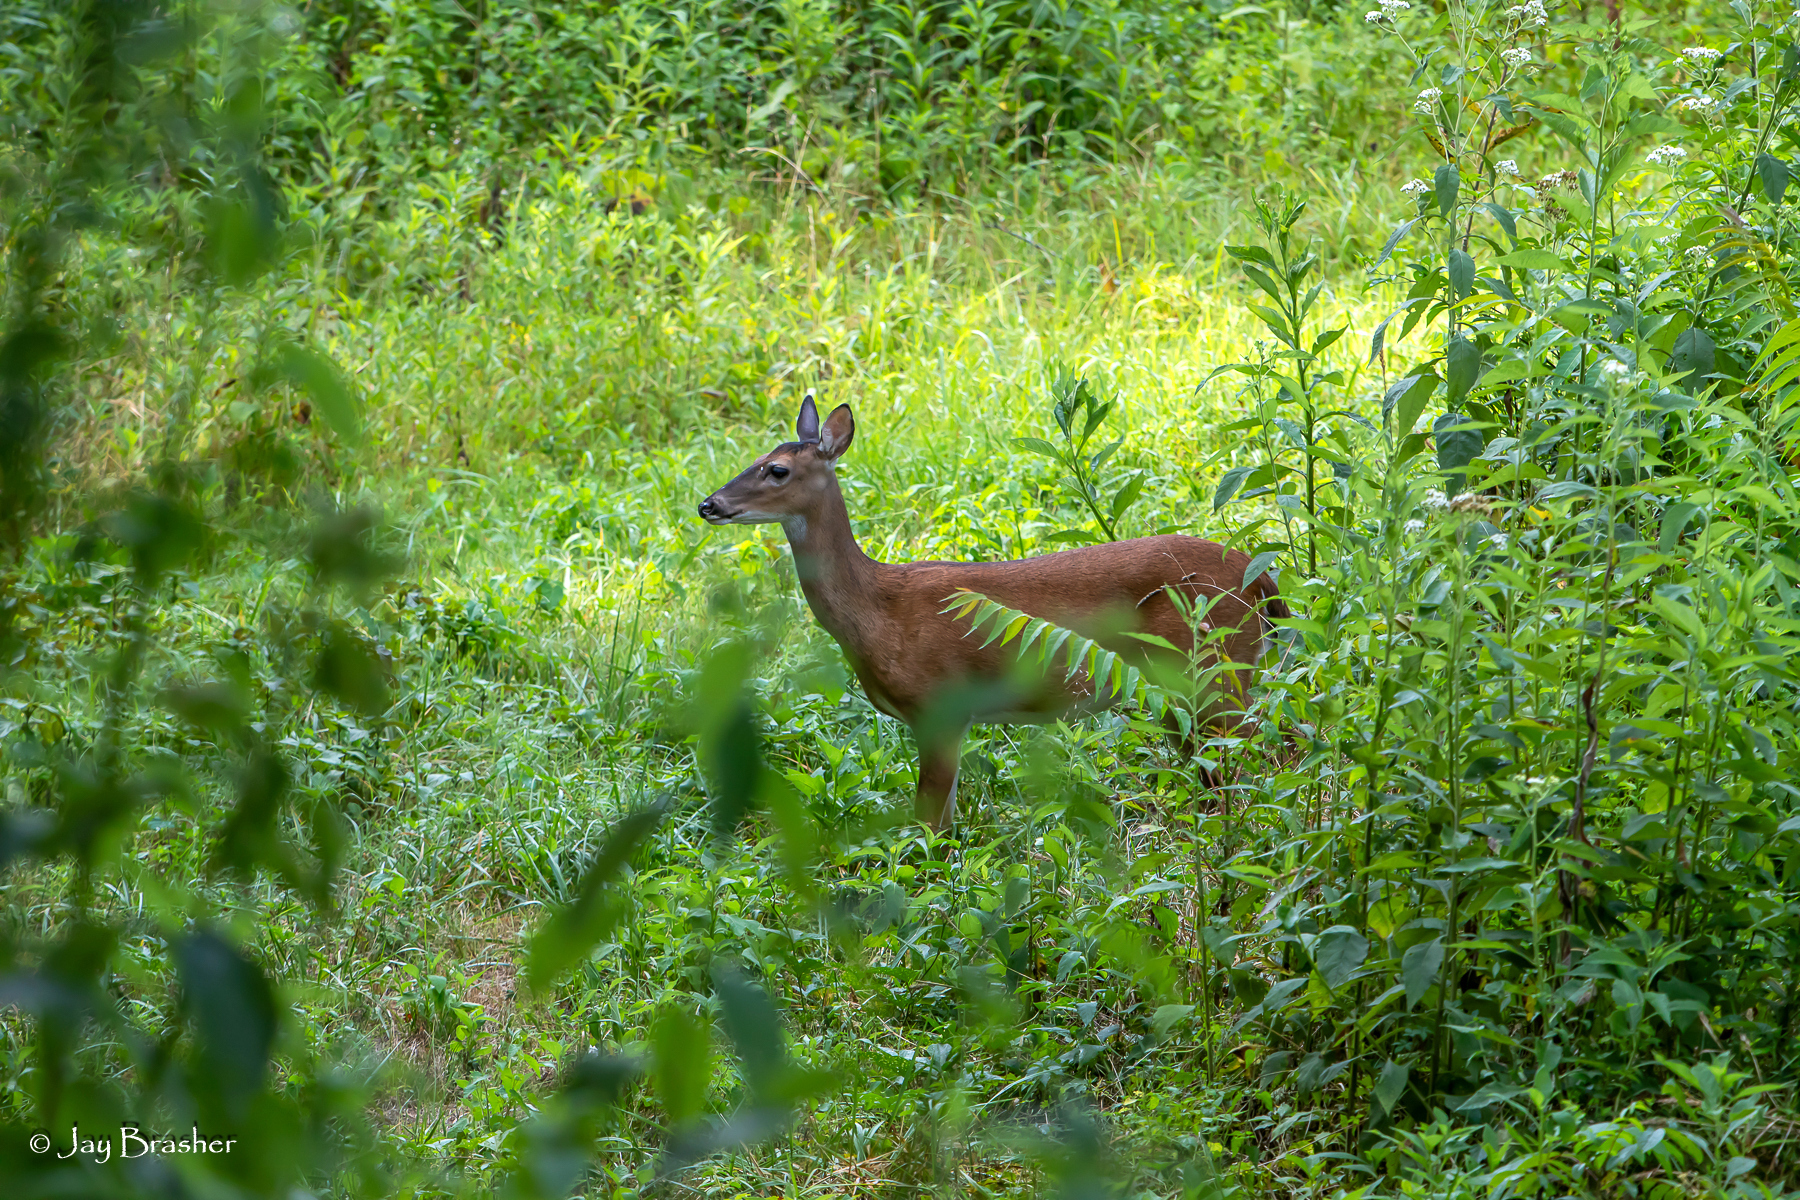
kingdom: Animalia
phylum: Chordata
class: Mammalia
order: Artiodactyla
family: Cervidae
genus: Odocoileus
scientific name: Odocoileus virginianus
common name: White-tailed deer
